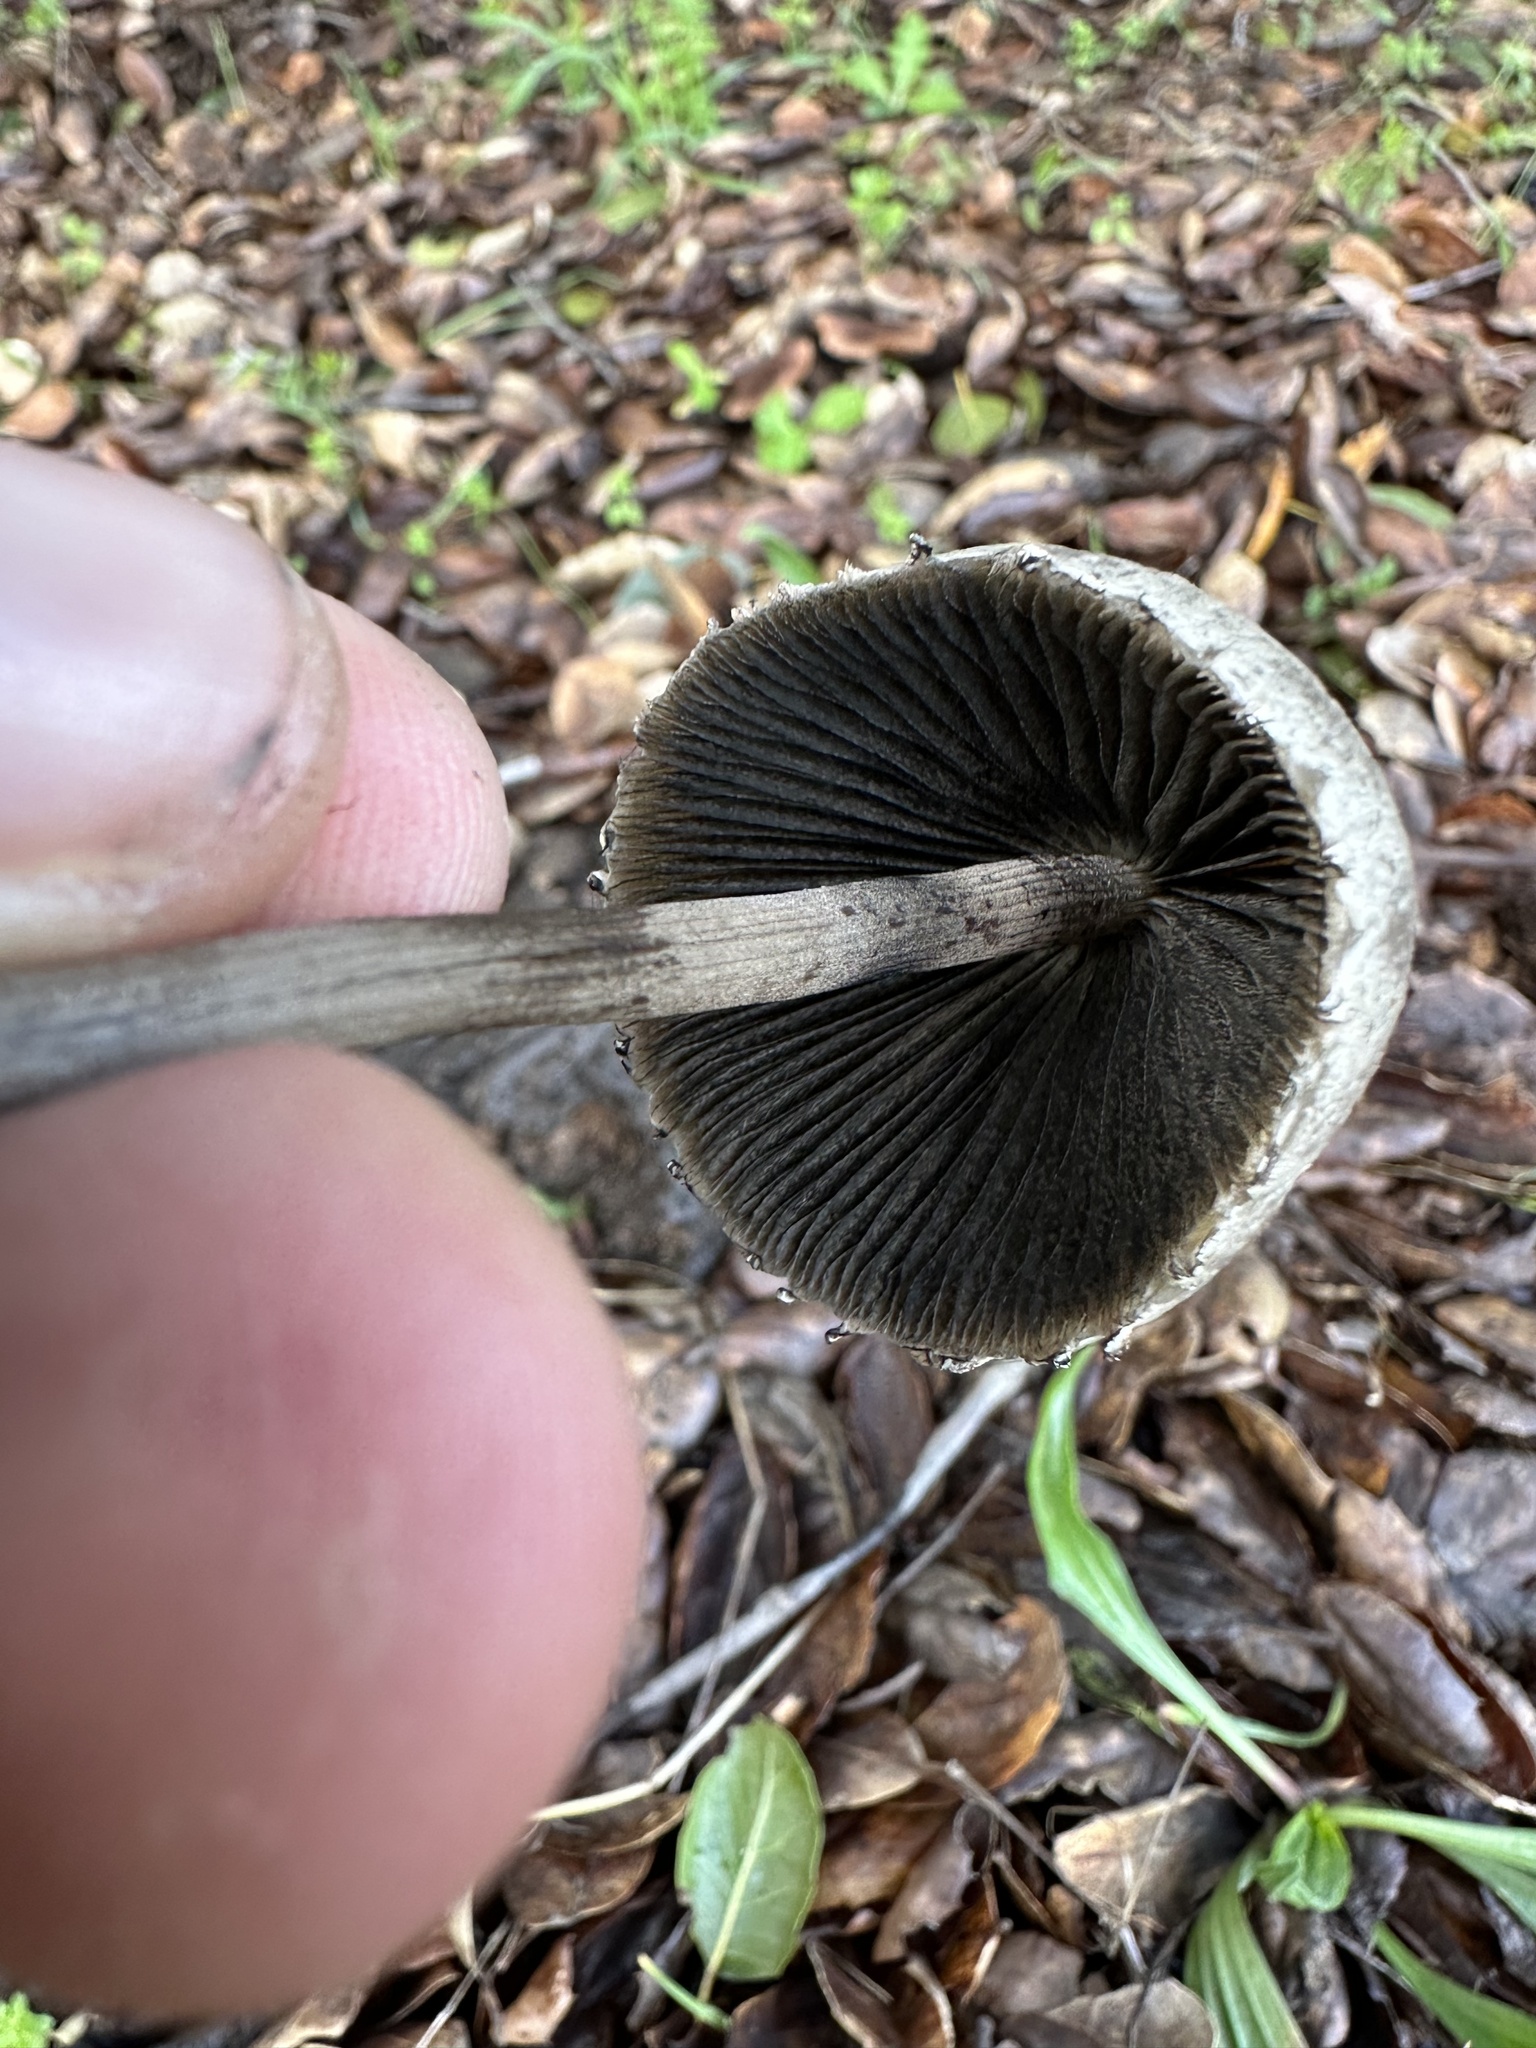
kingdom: Fungi
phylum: Basidiomycota
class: Agaricomycetes
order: Agaricales
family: Bolbitiaceae
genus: Panaeolus
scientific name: Panaeolus papilionaceus
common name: Petticoat mottlegill
